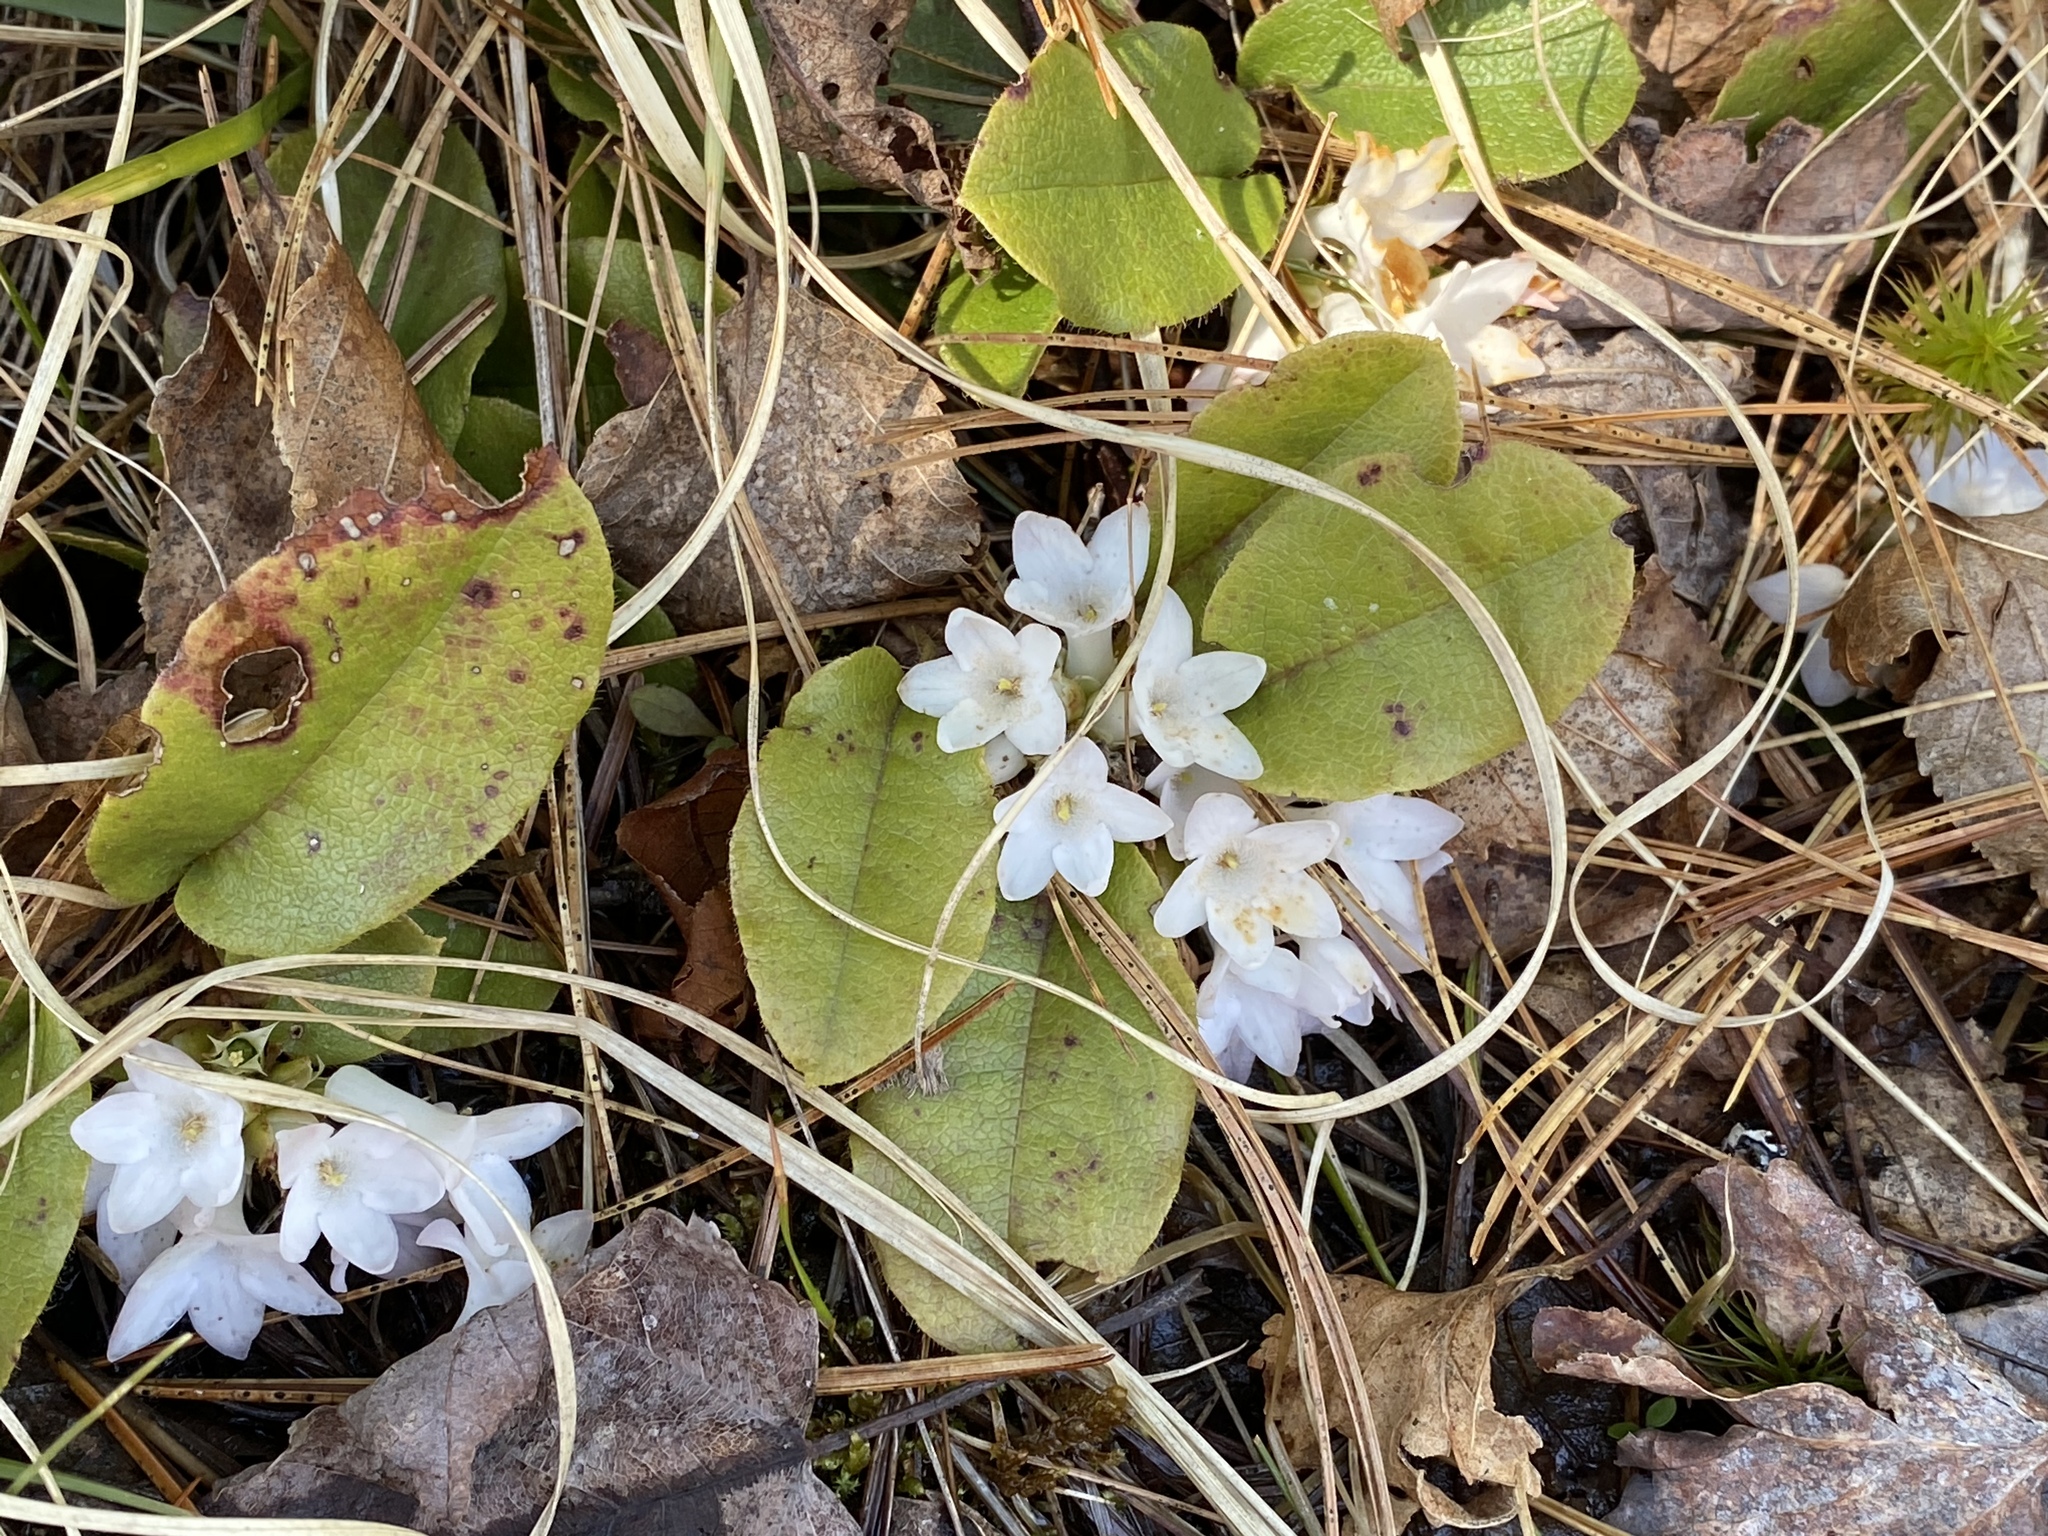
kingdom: Plantae
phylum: Tracheophyta
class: Magnoliopsida
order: Ericales
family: Ericaceae
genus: Epigaea
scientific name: Epigaea repens
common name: Gravelroot
